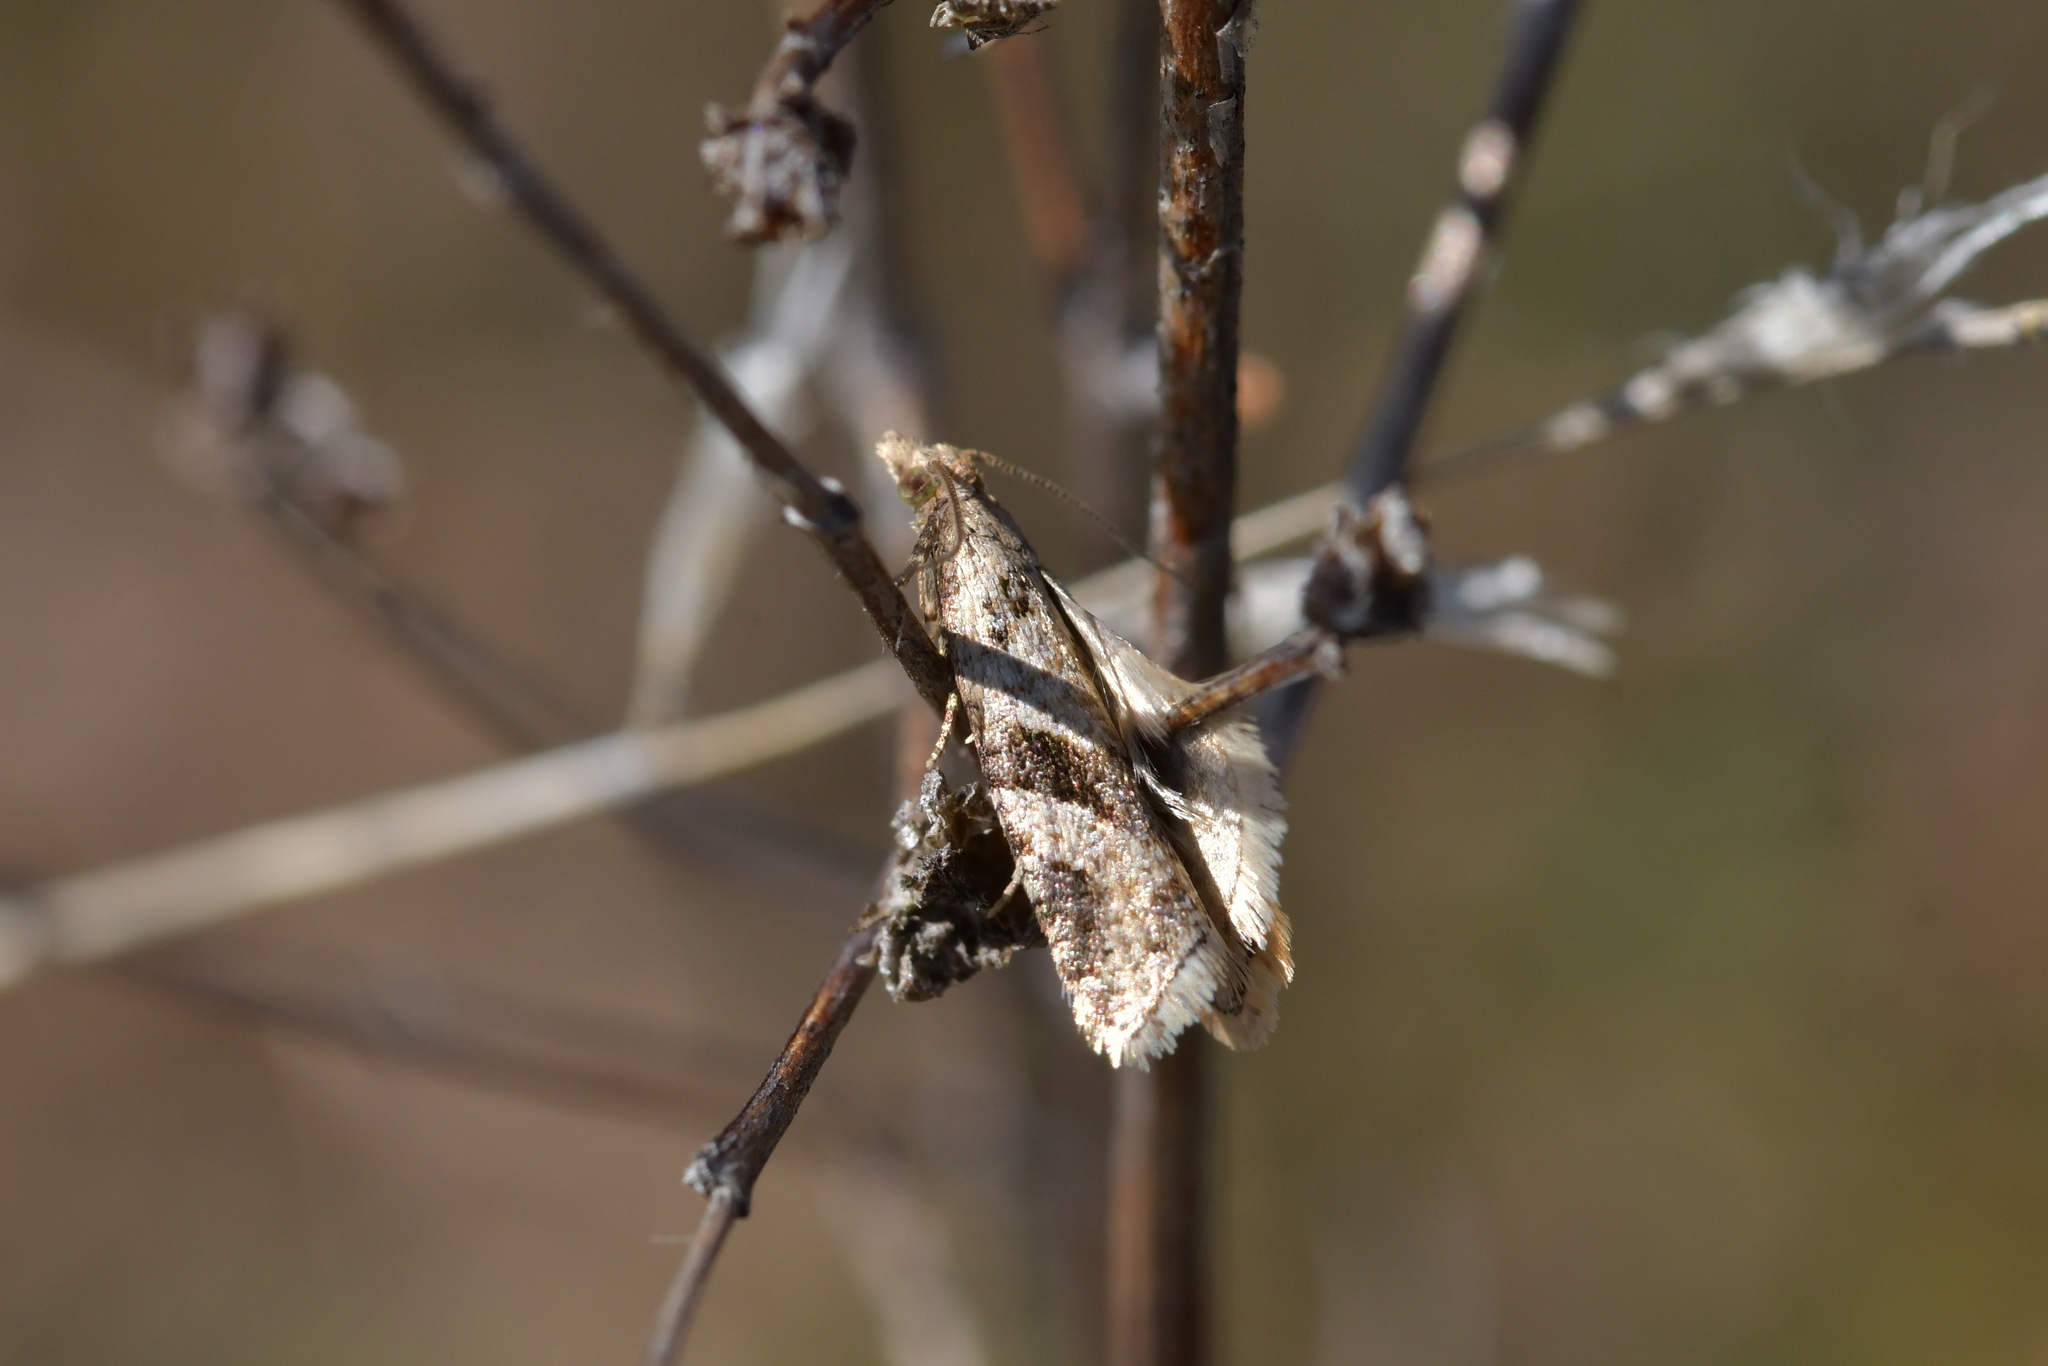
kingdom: Animalia
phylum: Arthropoda
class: Insecta
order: Lepidoptera
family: Tortricidae
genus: Capua
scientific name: Capua semiferana
